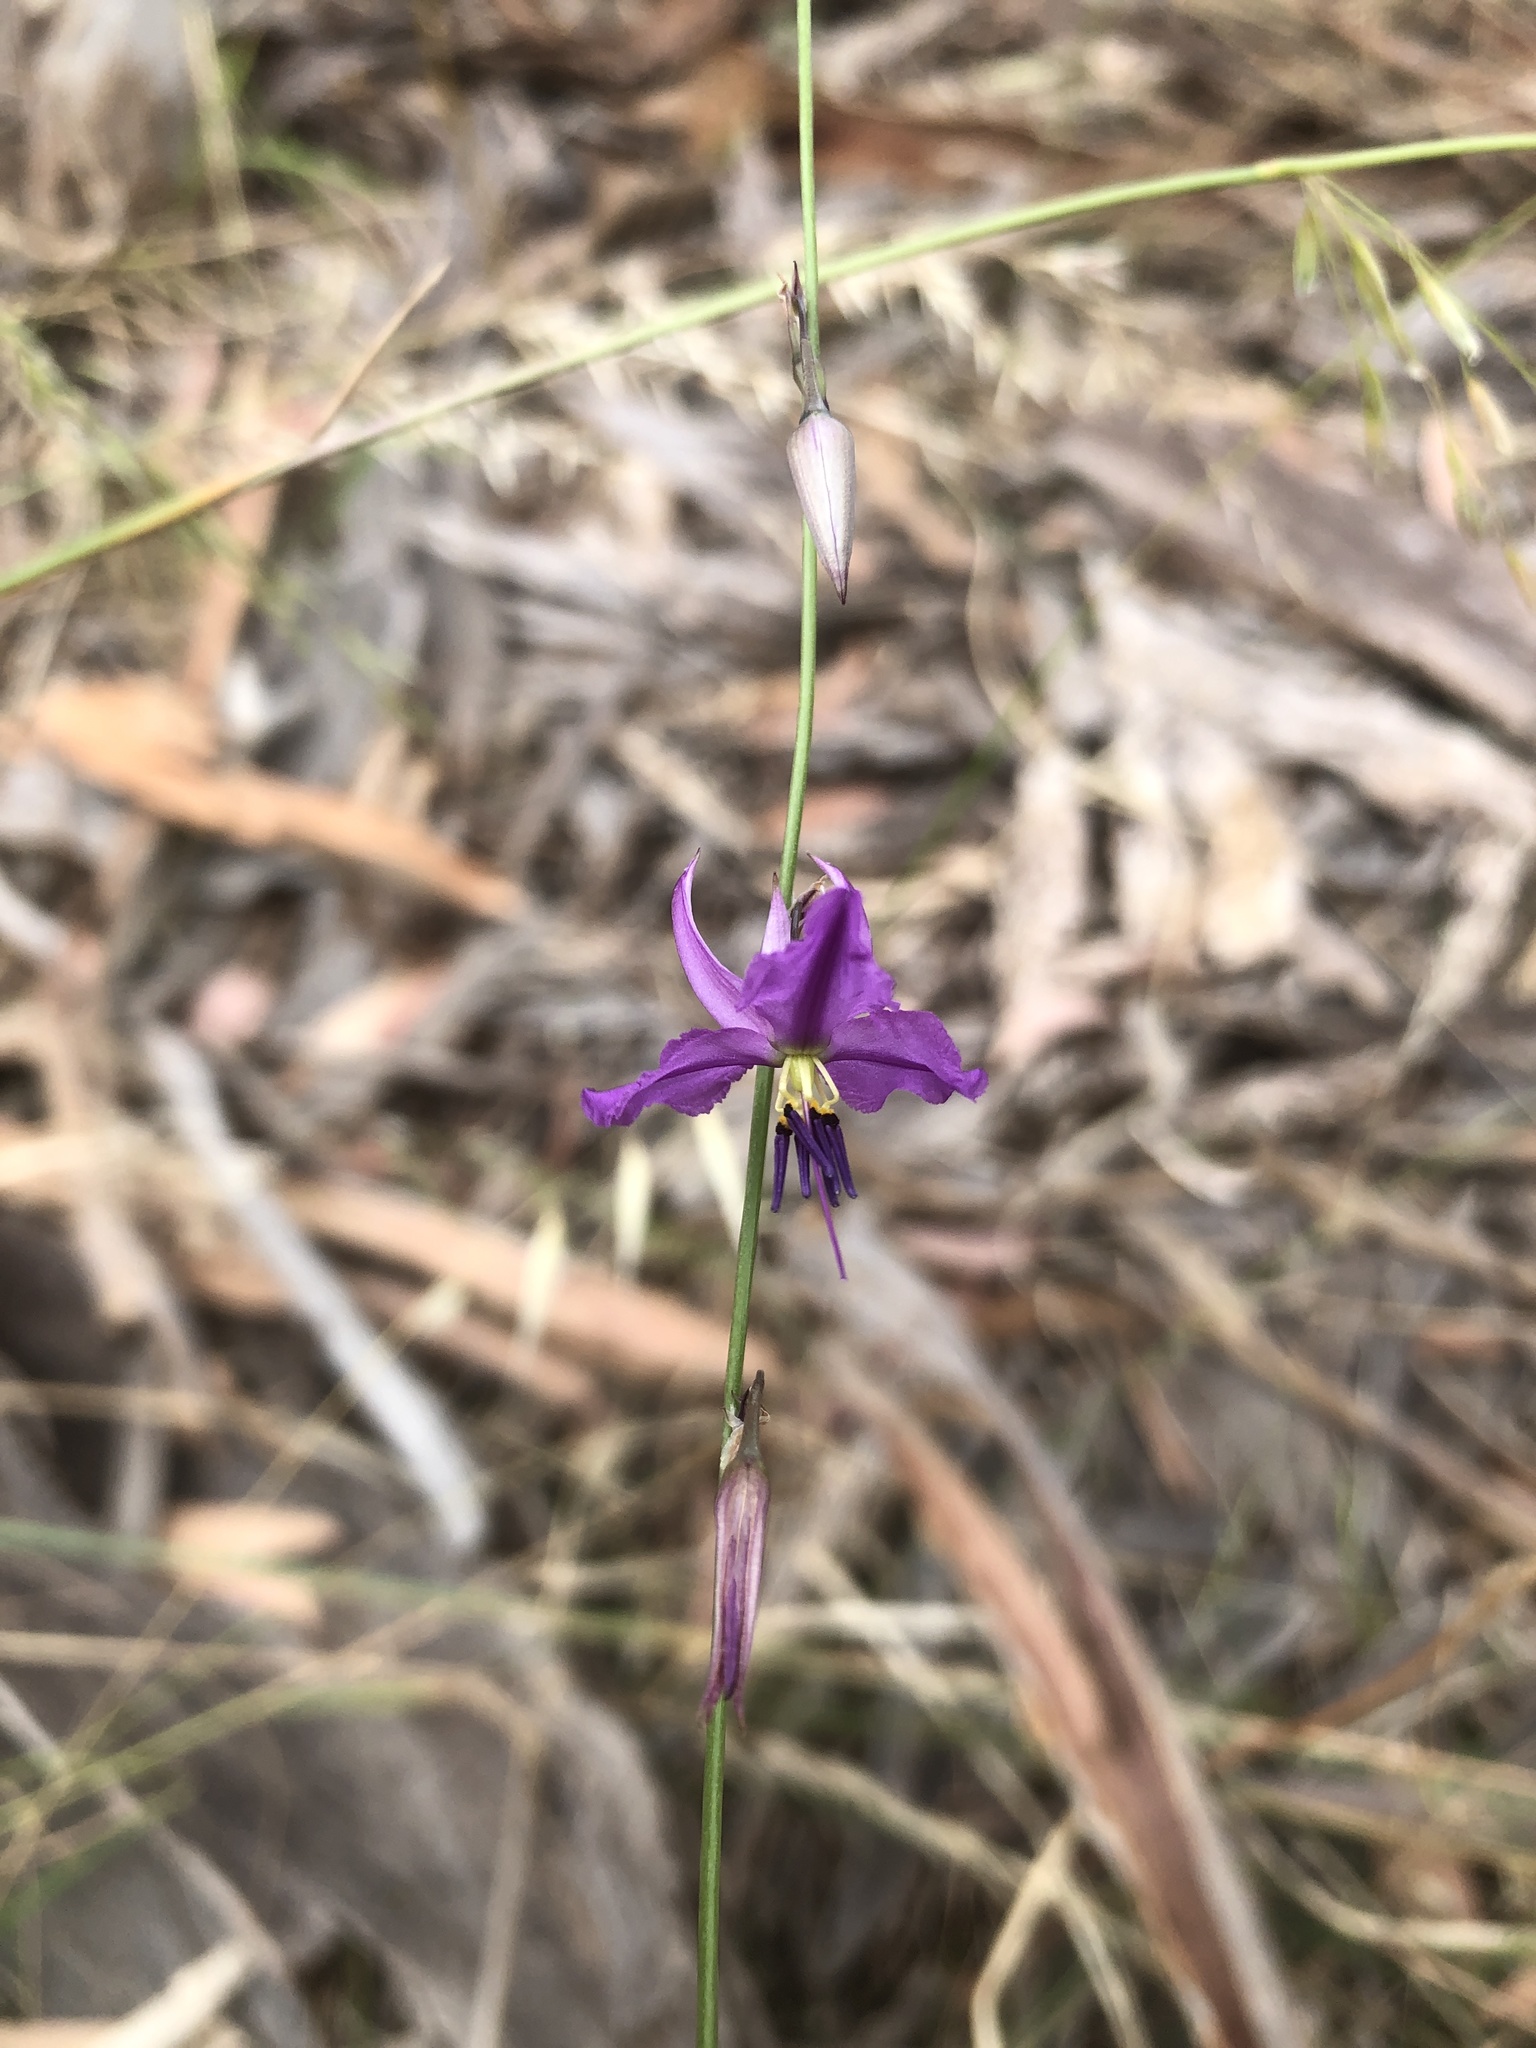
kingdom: Plantae
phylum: Tracheophyta
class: Liliopsida
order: Asparagales
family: Asparagaceae
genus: Arthropodium
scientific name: Arthropodium strictum
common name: Chocolate-lily
